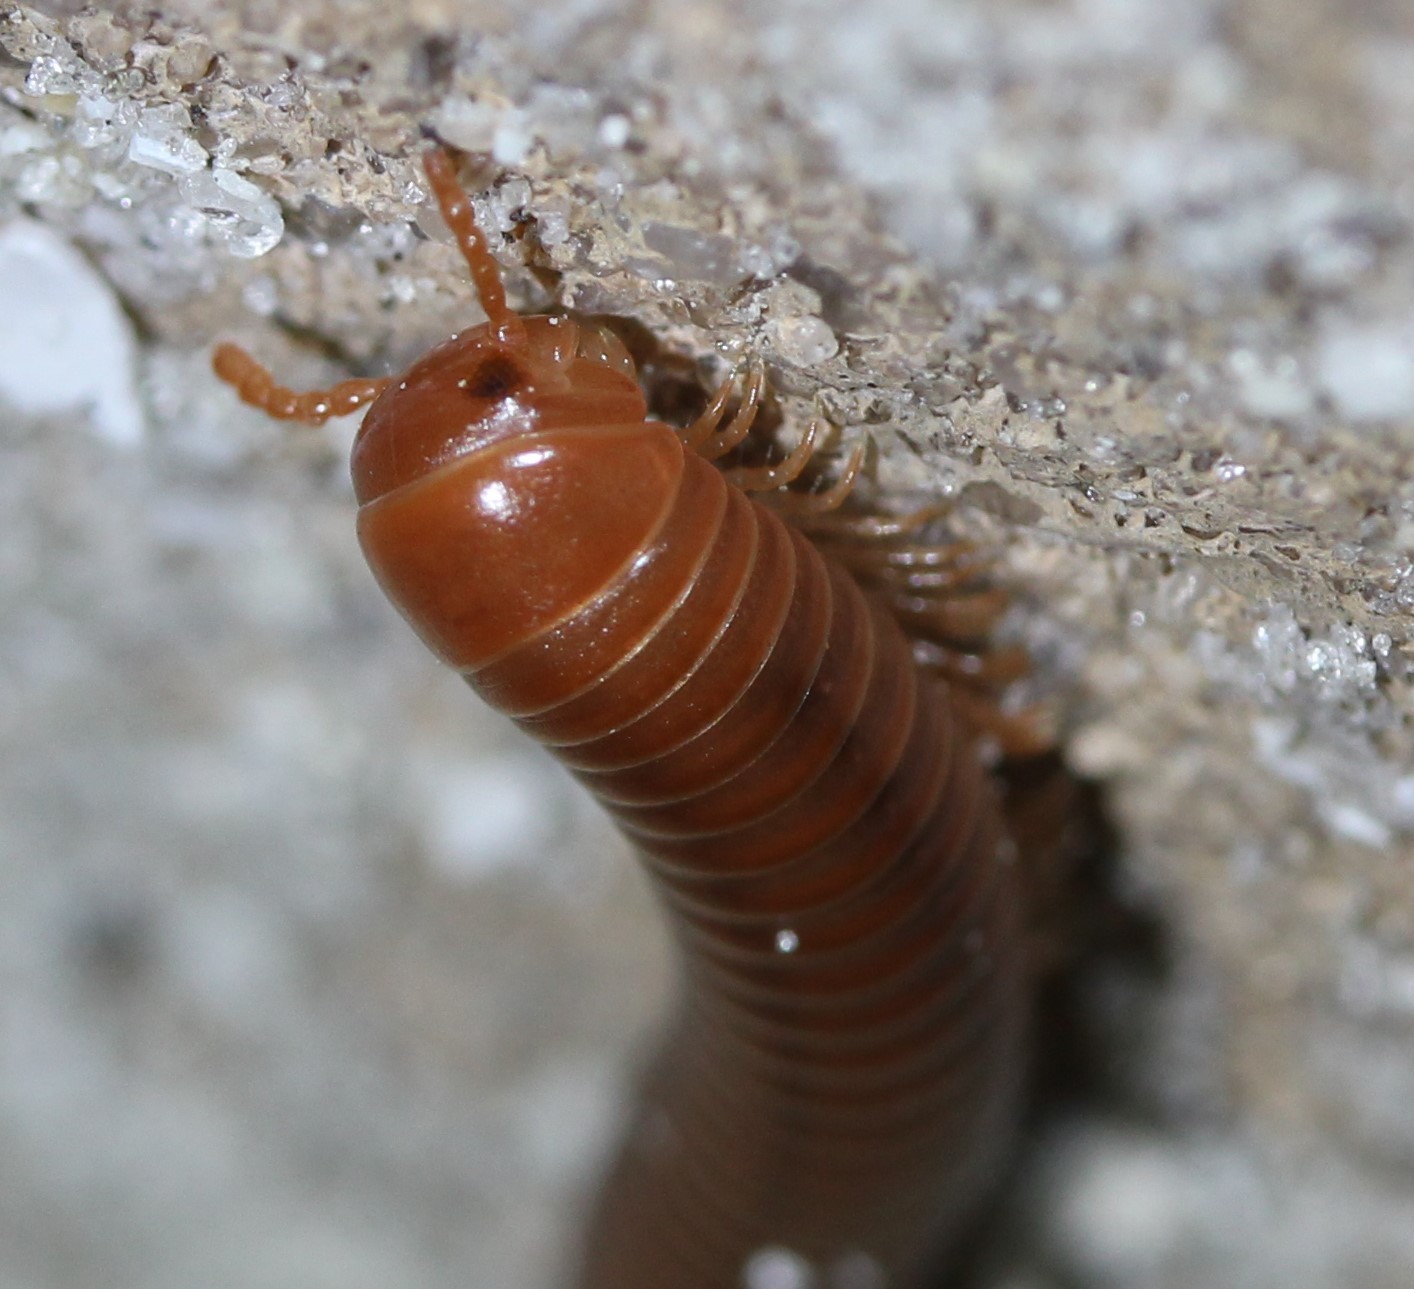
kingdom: Animalia
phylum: Arthropoda
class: Diplopoda
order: Spirobolida
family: Pachybolidae
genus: Trigoniulus
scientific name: Trigoniulus corallinus
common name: Millipede
